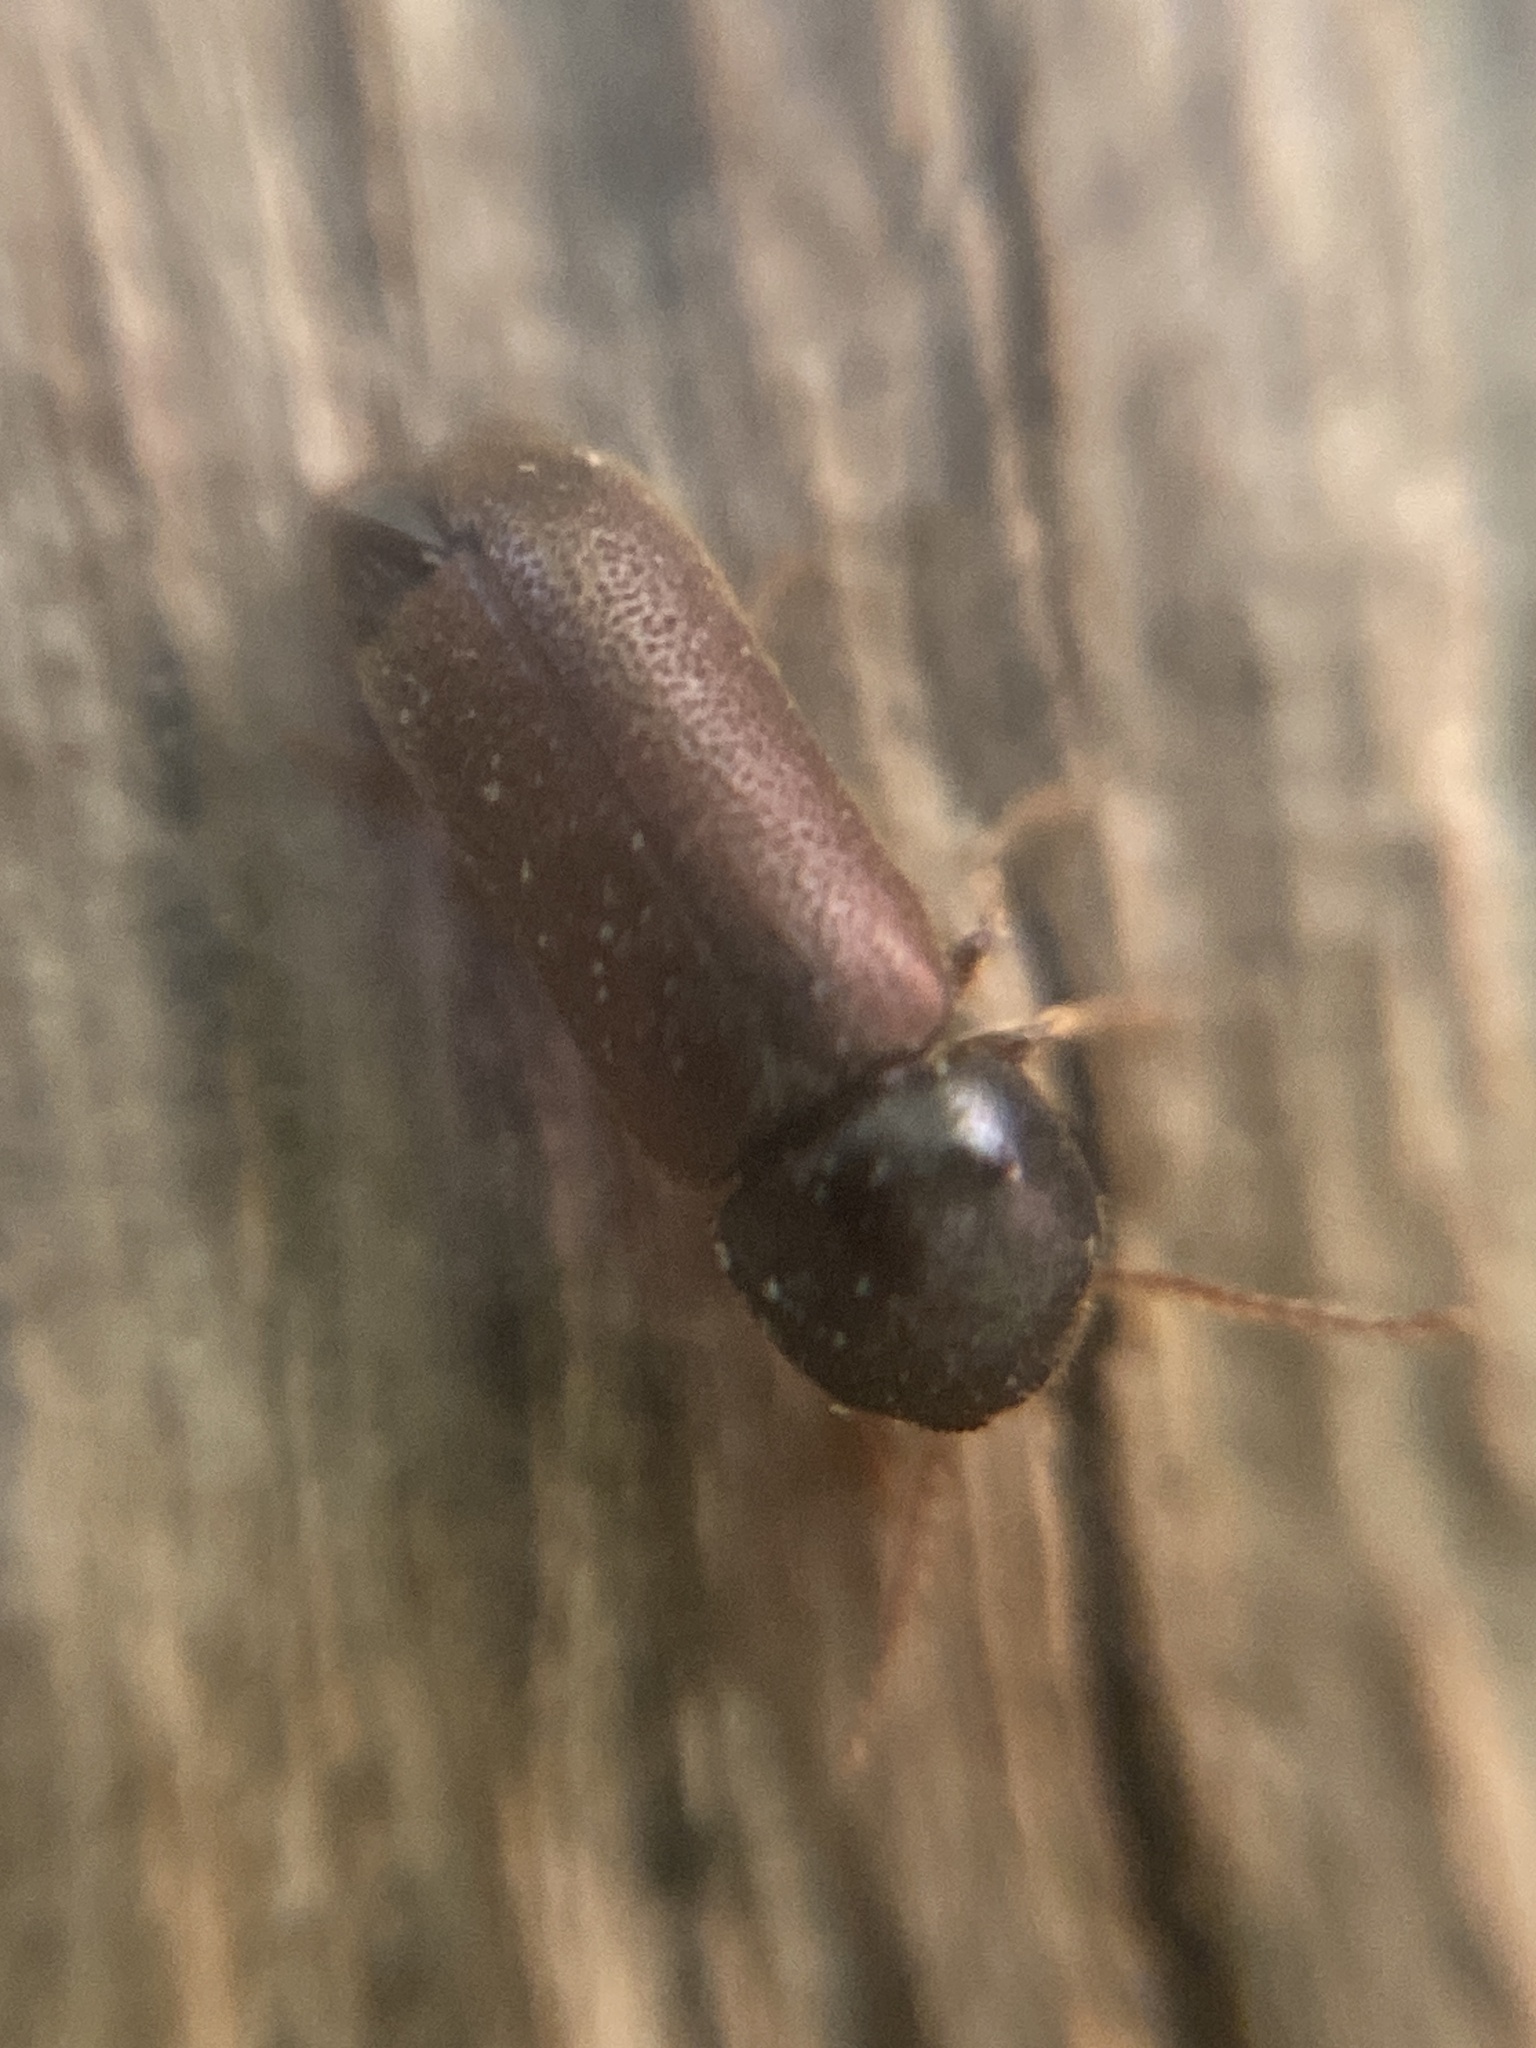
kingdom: Animalia
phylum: Arthropoda
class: Insecta
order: Coleoptera
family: Anobiidae
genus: Ptilinus
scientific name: Ptilinus pectinicornis
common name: Fan-bearing wood-borer
